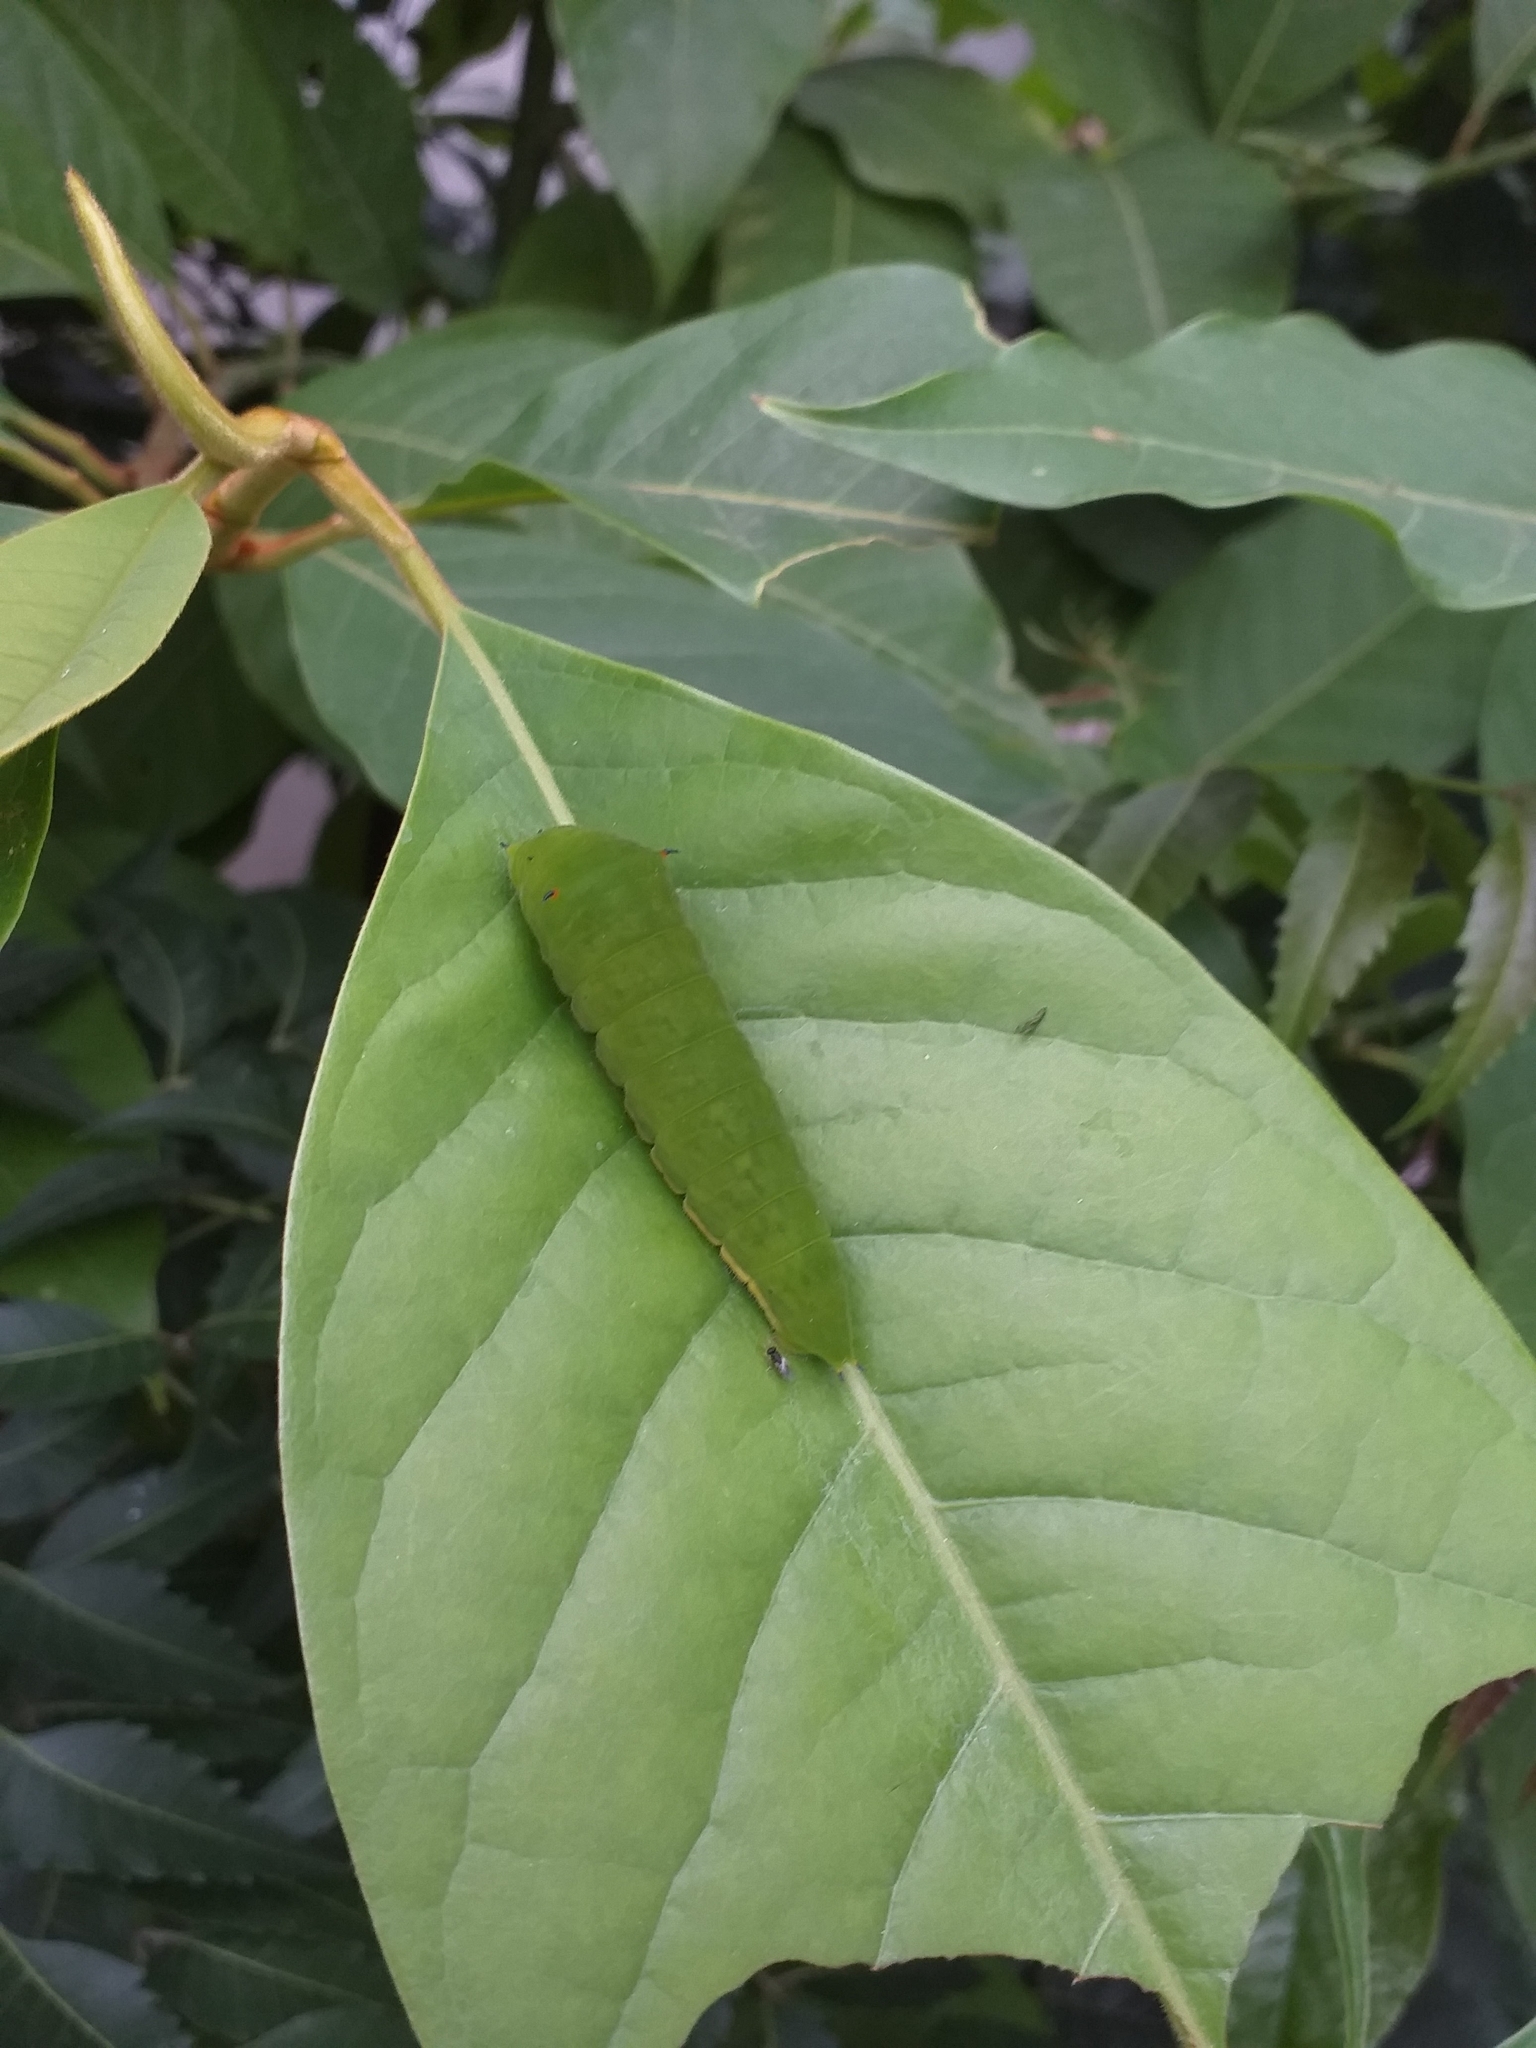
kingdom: Animalia
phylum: Arthropoda
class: Insecta
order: Lepidoptera
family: Papilionidae
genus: Graphium
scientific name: Graphium agamemnon
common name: Tailed jay
